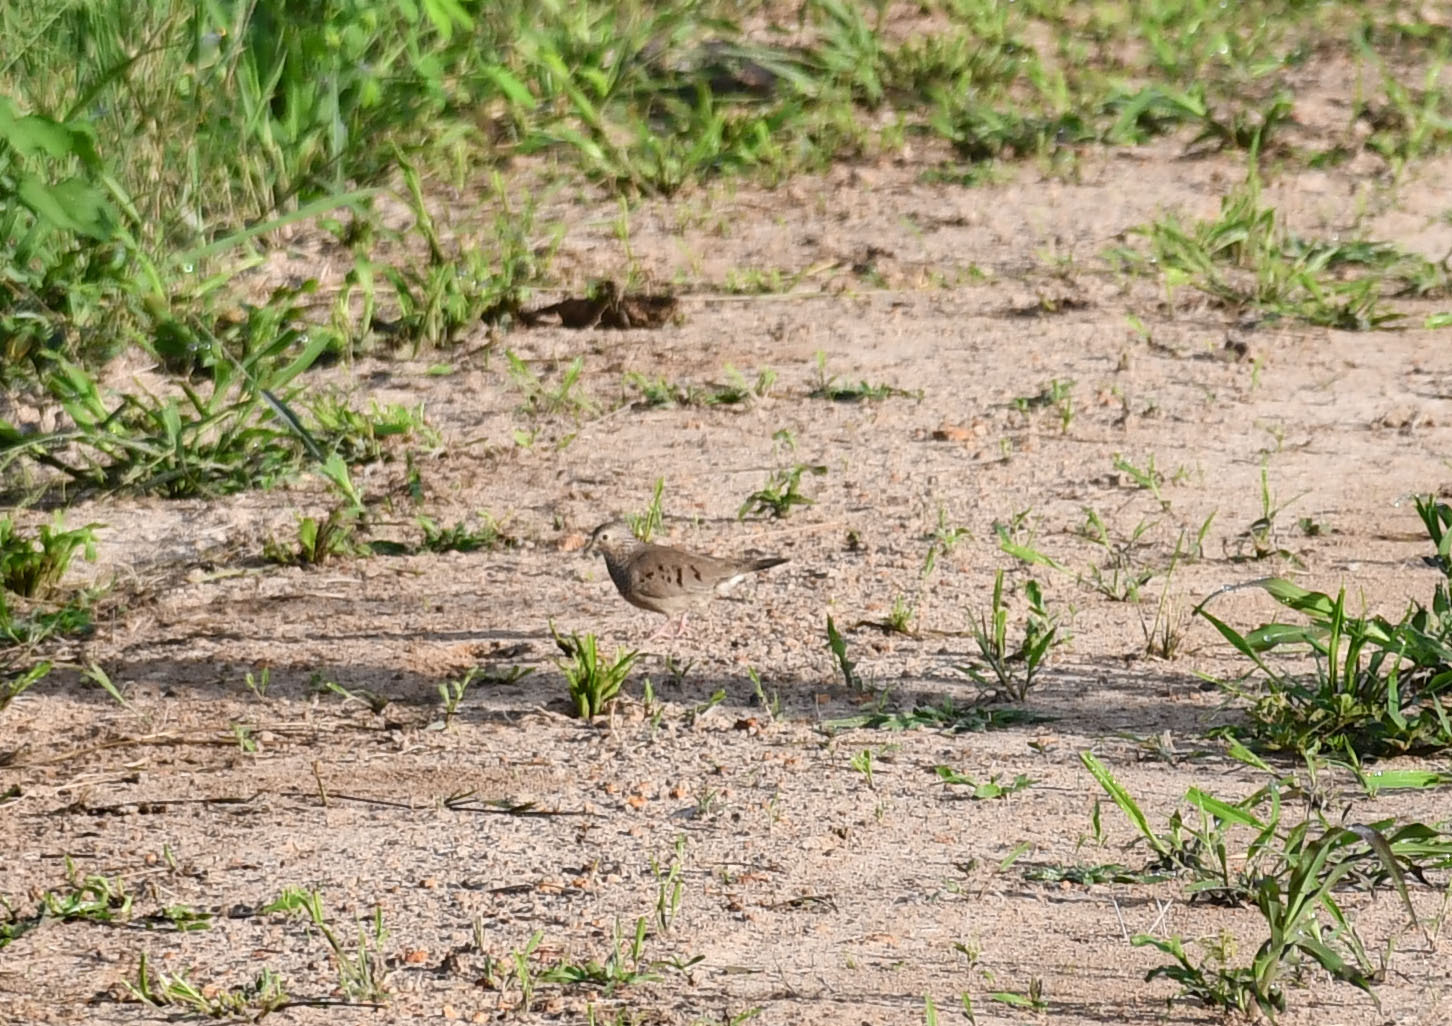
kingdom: Animalia
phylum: Chordata
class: Aves
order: Columbiformes
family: Columbidae
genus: Columbina
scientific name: Columbina passerina
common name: Common ground-dove
